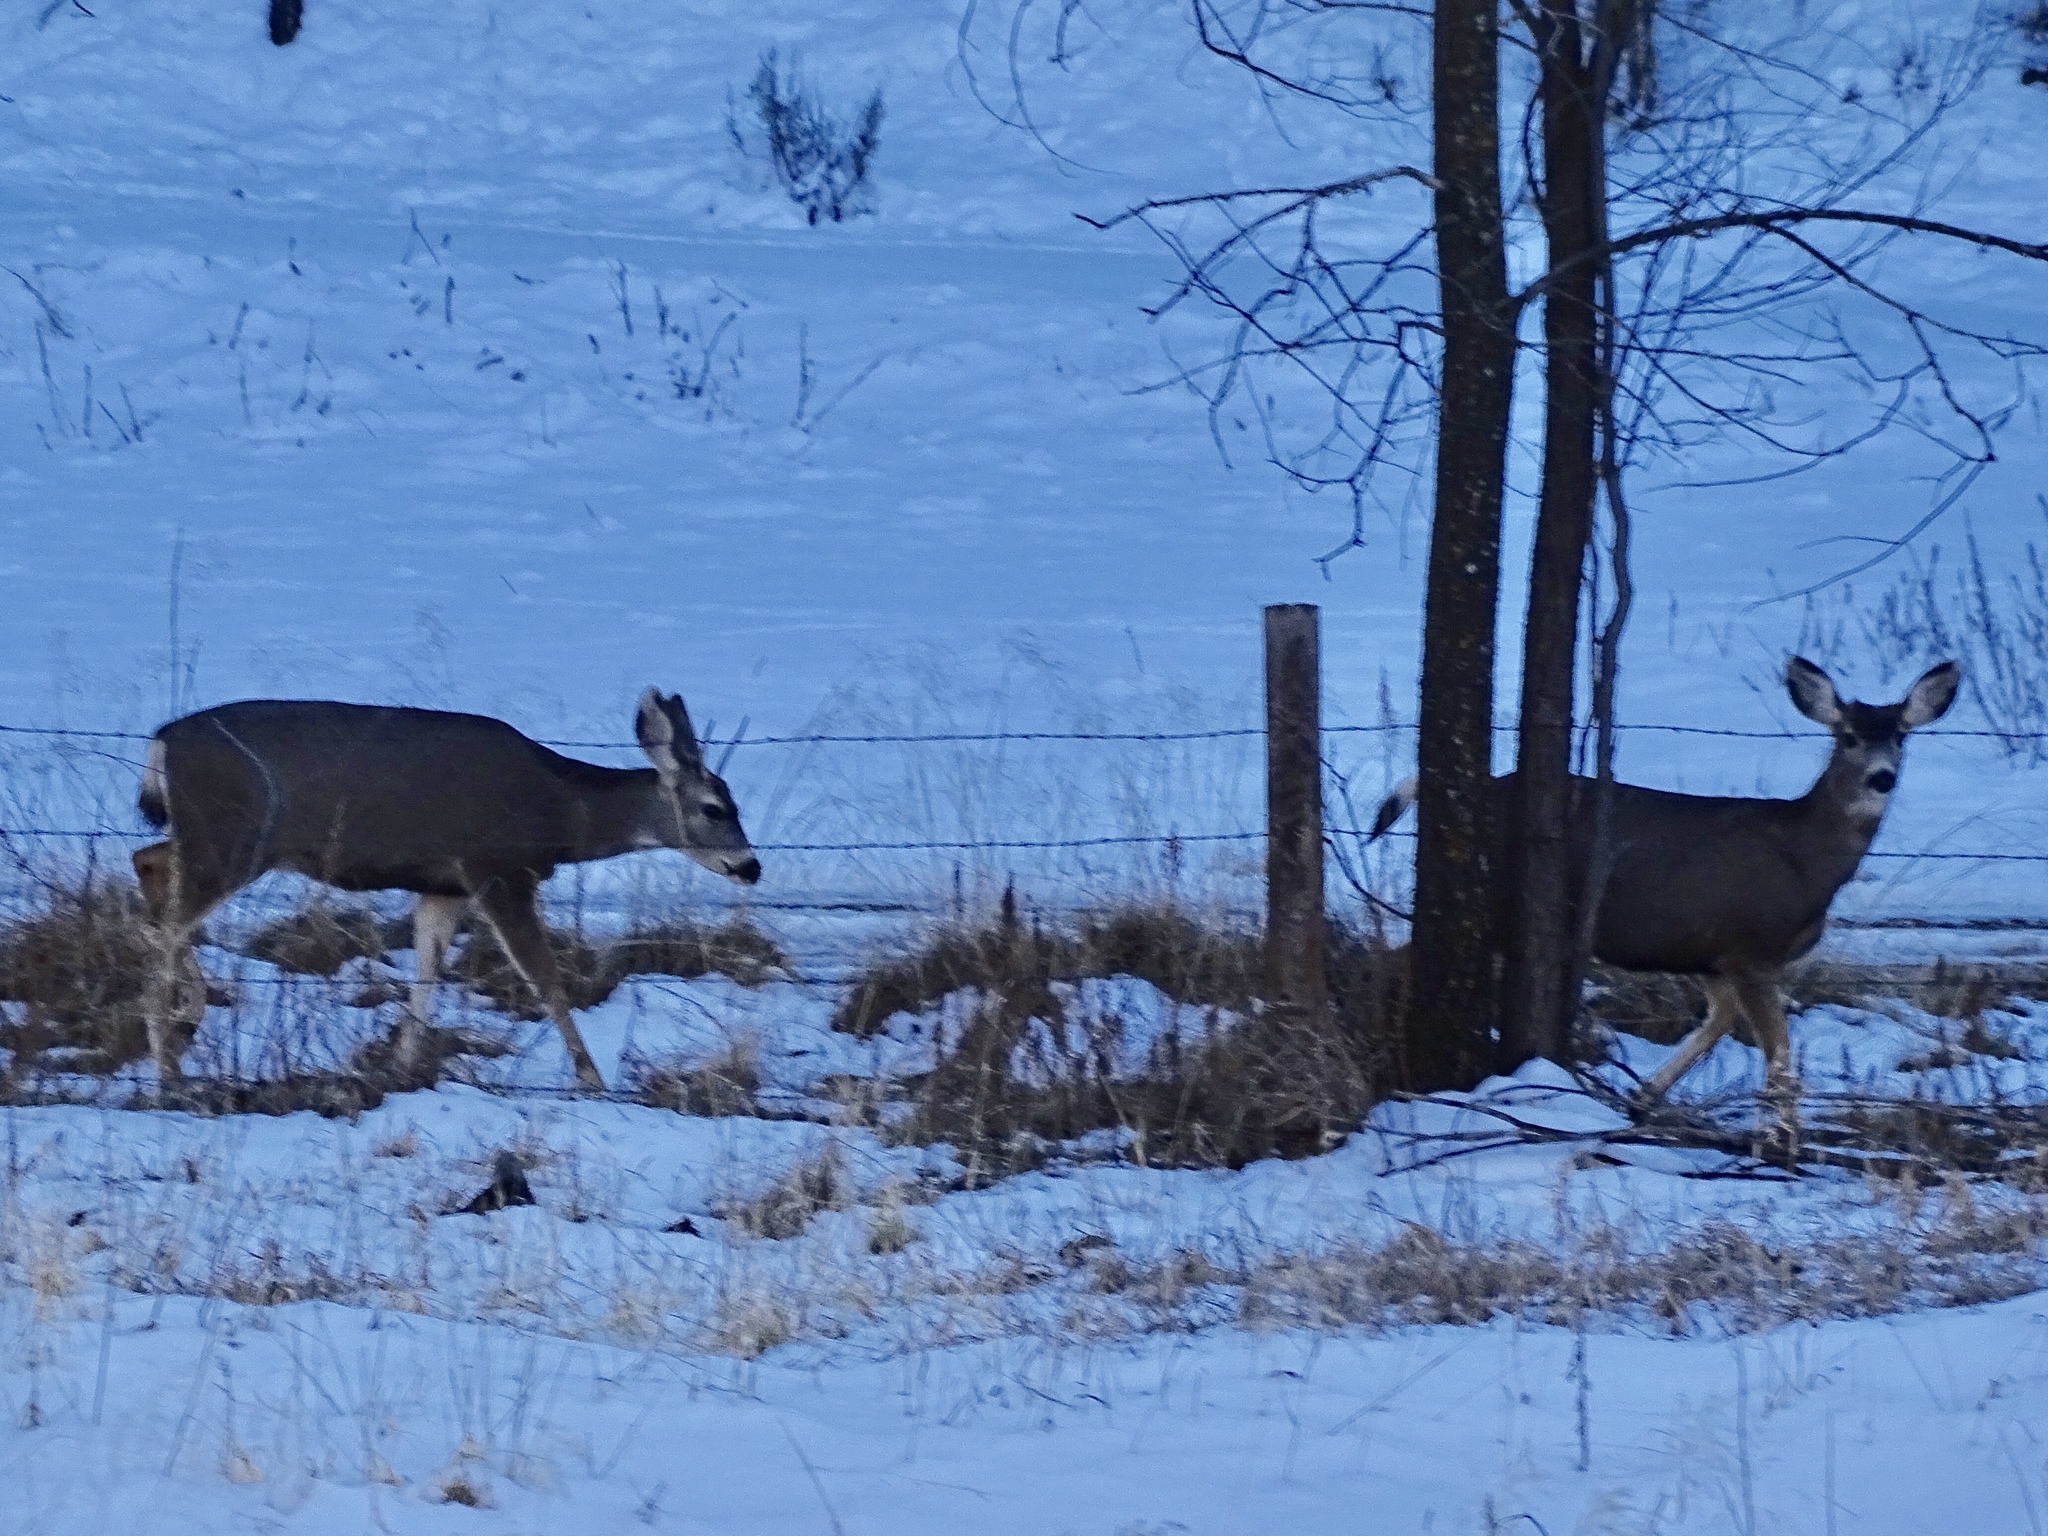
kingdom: Animalia
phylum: Chordata
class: Mammalia
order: Artiodactyla
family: Cervidae
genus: Odocoileus
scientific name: Odocoileus hemionus
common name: Mule deer
